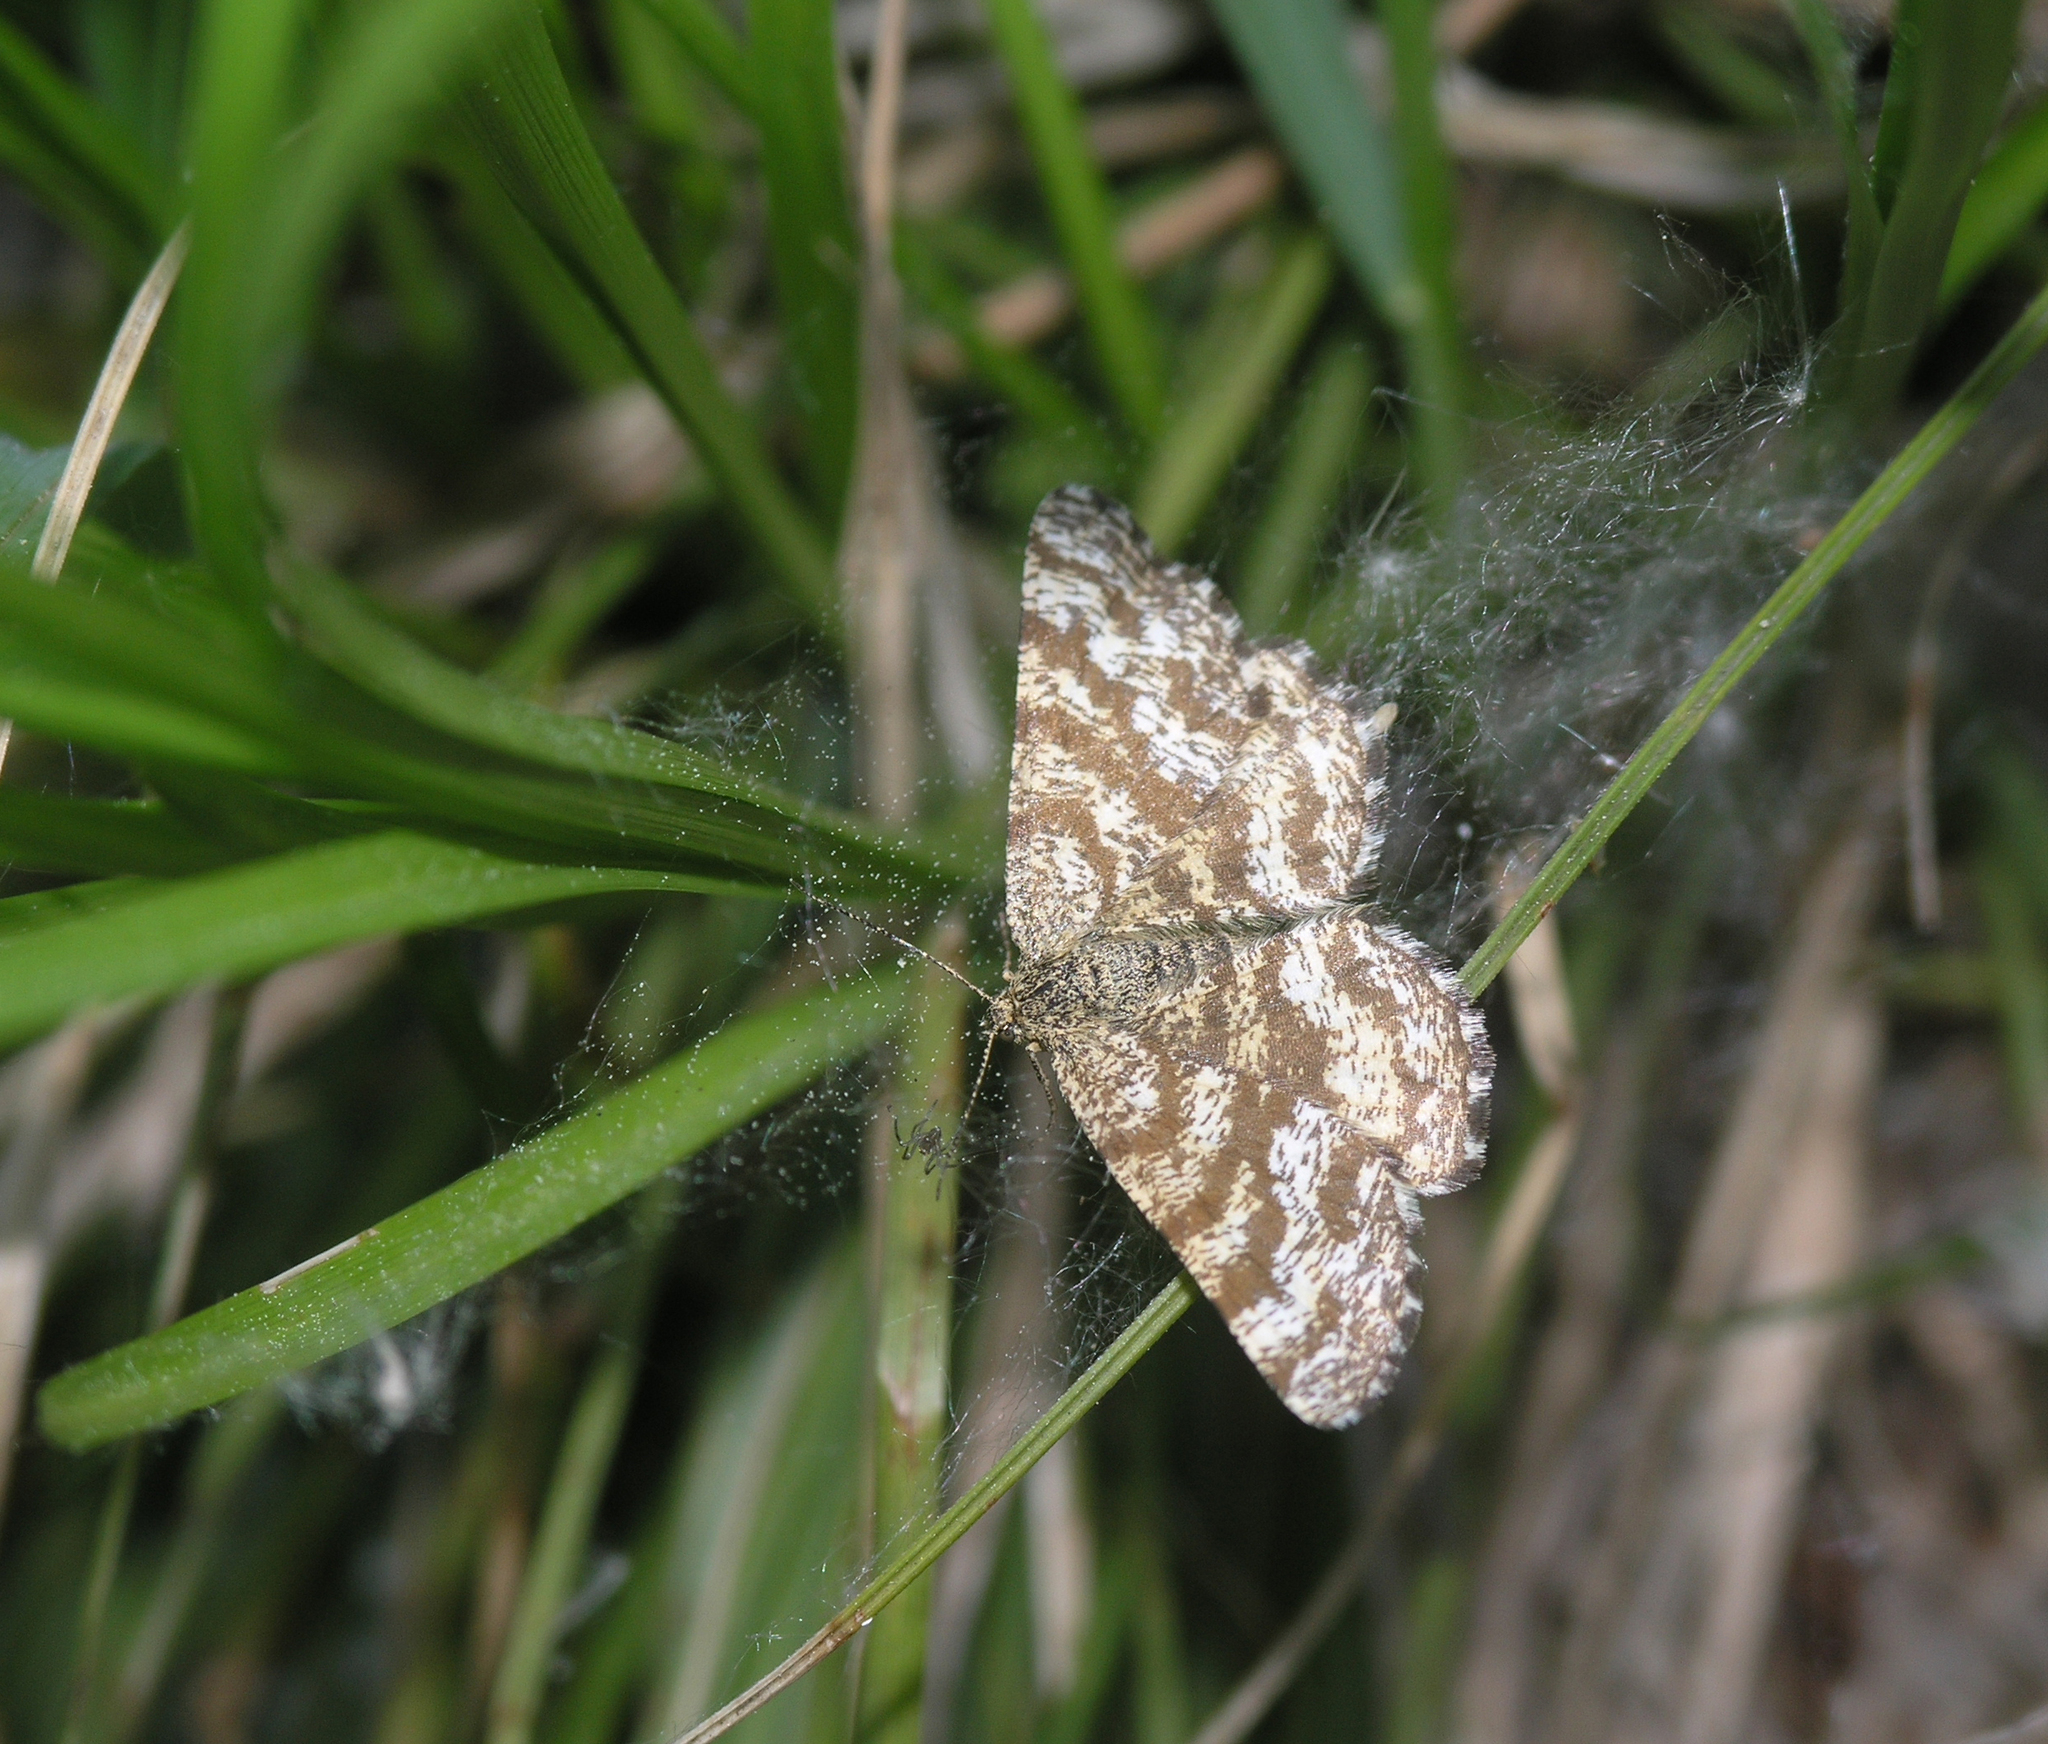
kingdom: Animalia
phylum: Arthropoda
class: Insecta
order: Lepidoptera
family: Geometridae
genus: Ematurga
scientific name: Ematurga atomaria
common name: Common heath
